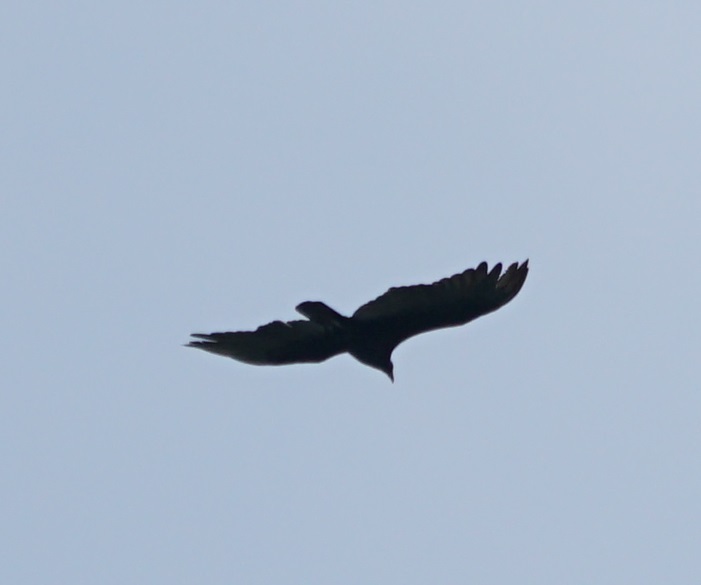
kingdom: Animalia
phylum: Chordata
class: Aves
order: Accipitriformes
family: Cathartidae
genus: Cathartes
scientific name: Cathartes aura
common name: Turkey vulture
